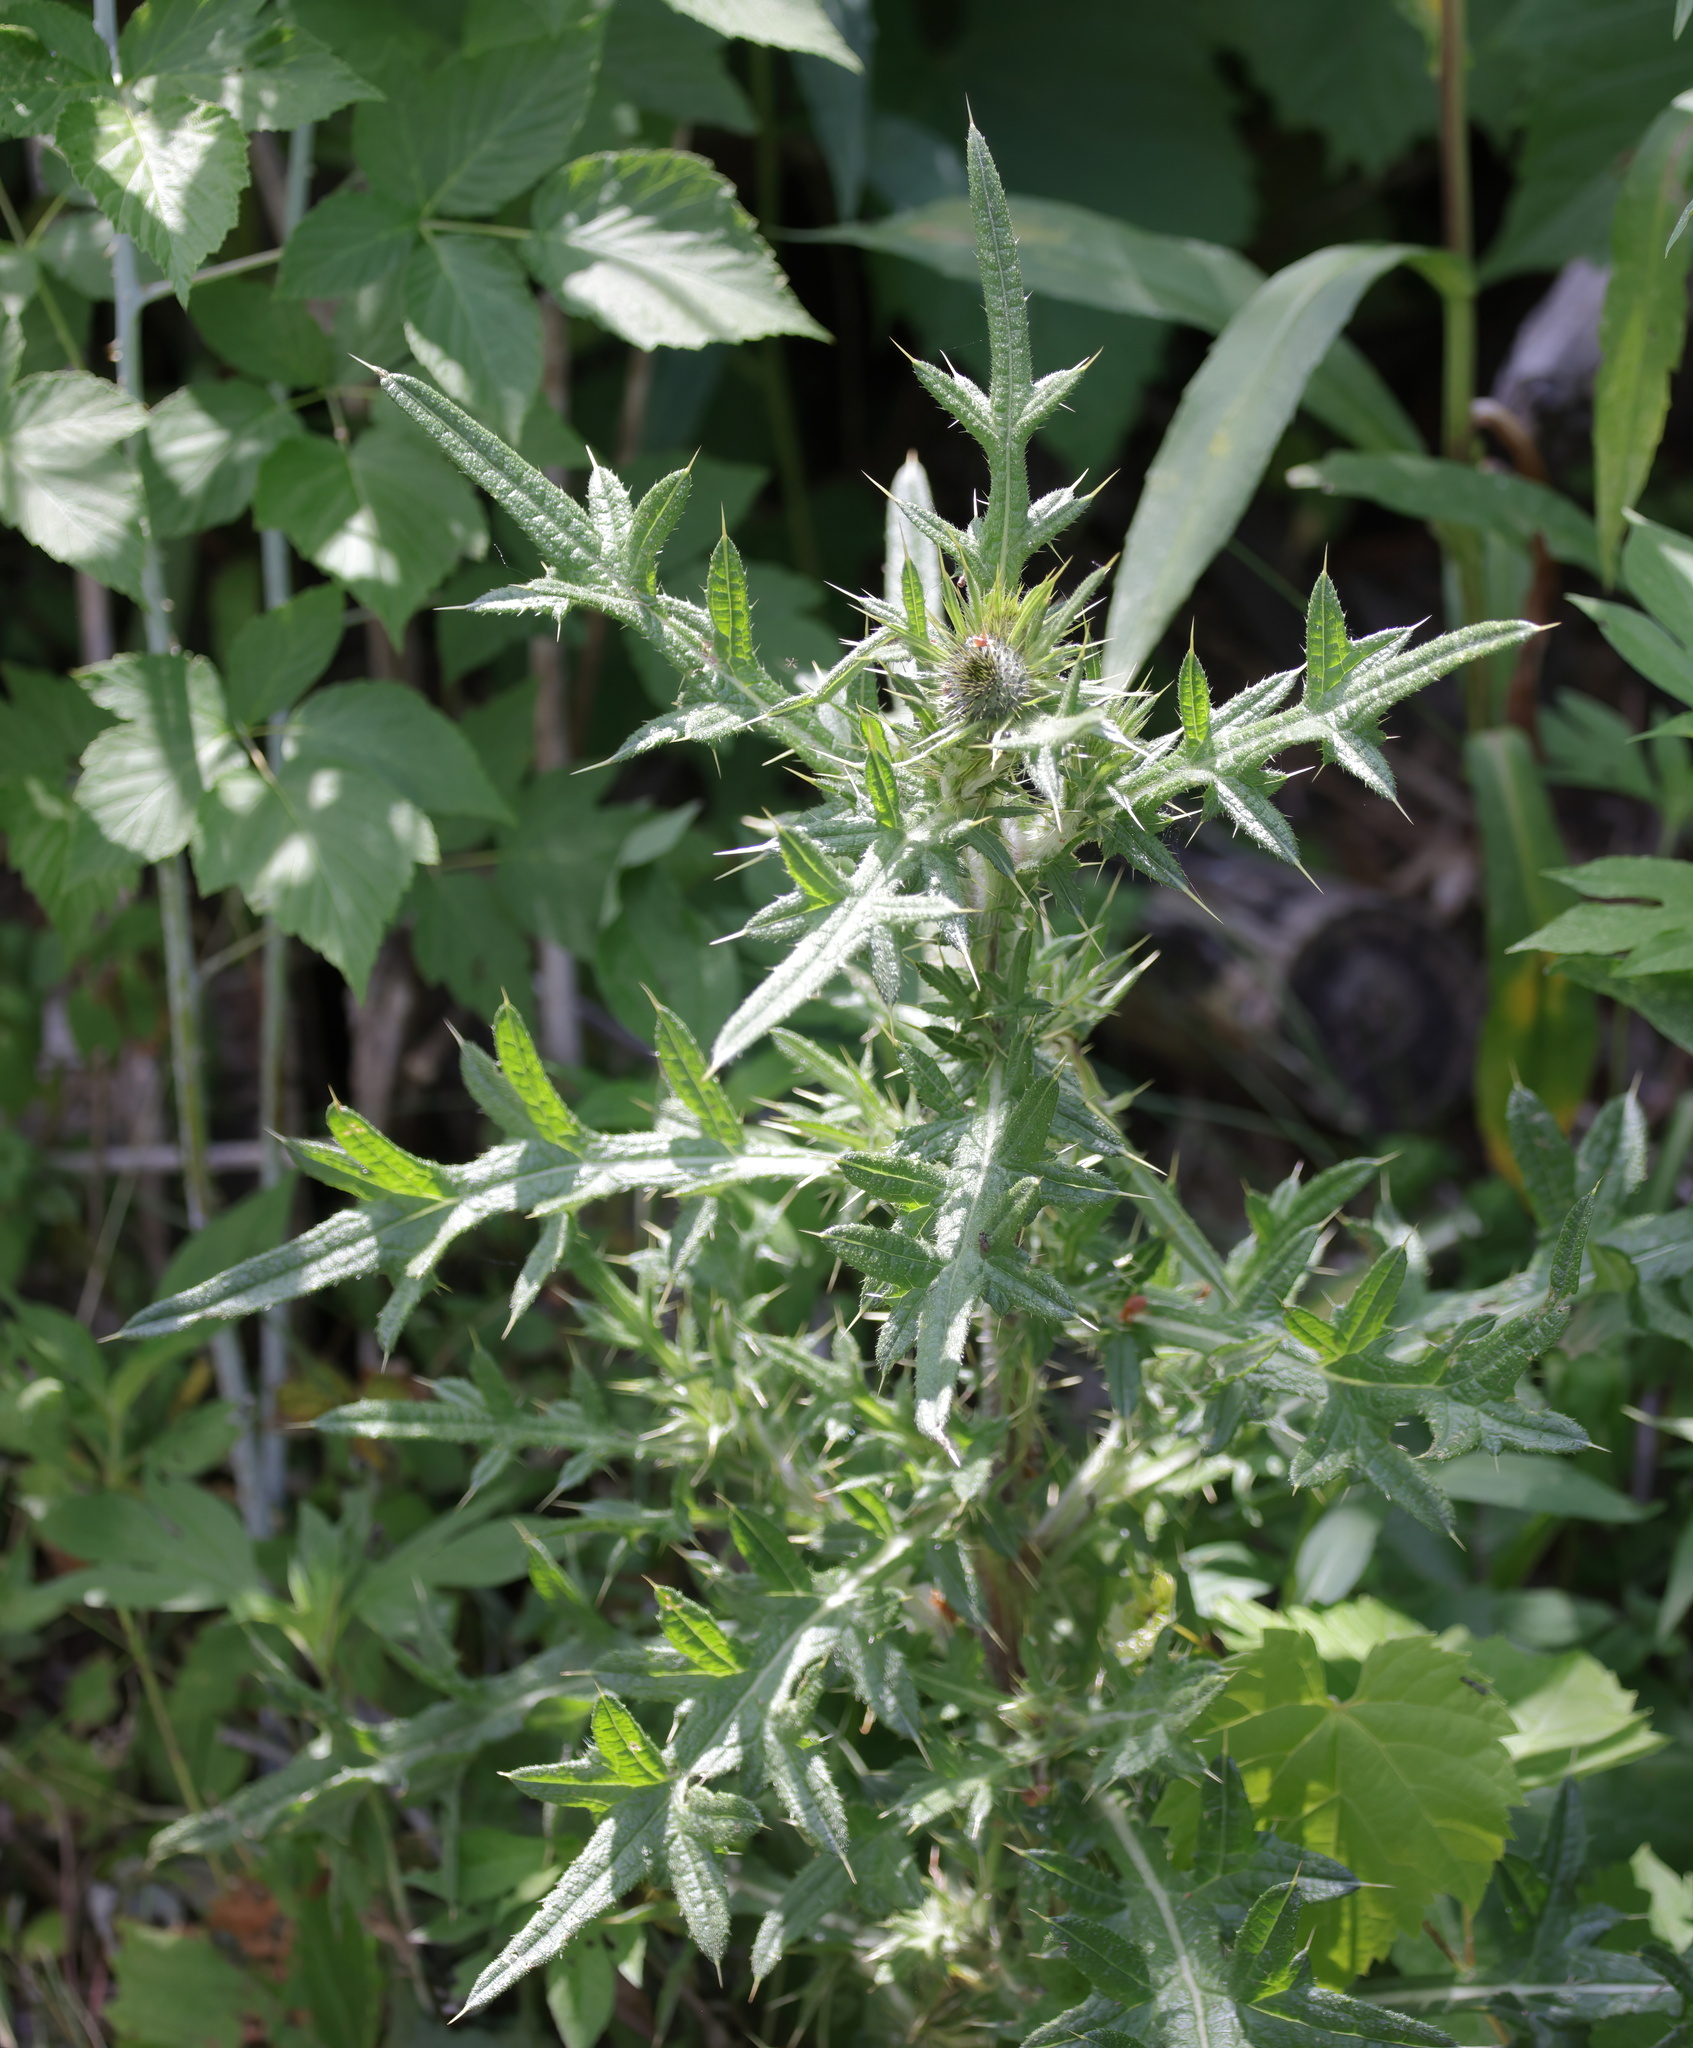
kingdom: Plantae
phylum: Tracheophyta
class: Magnoliopsida
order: Asterales
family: Asteraceae
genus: Cirsium
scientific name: Cirsium vulgare
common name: Bull thistle
